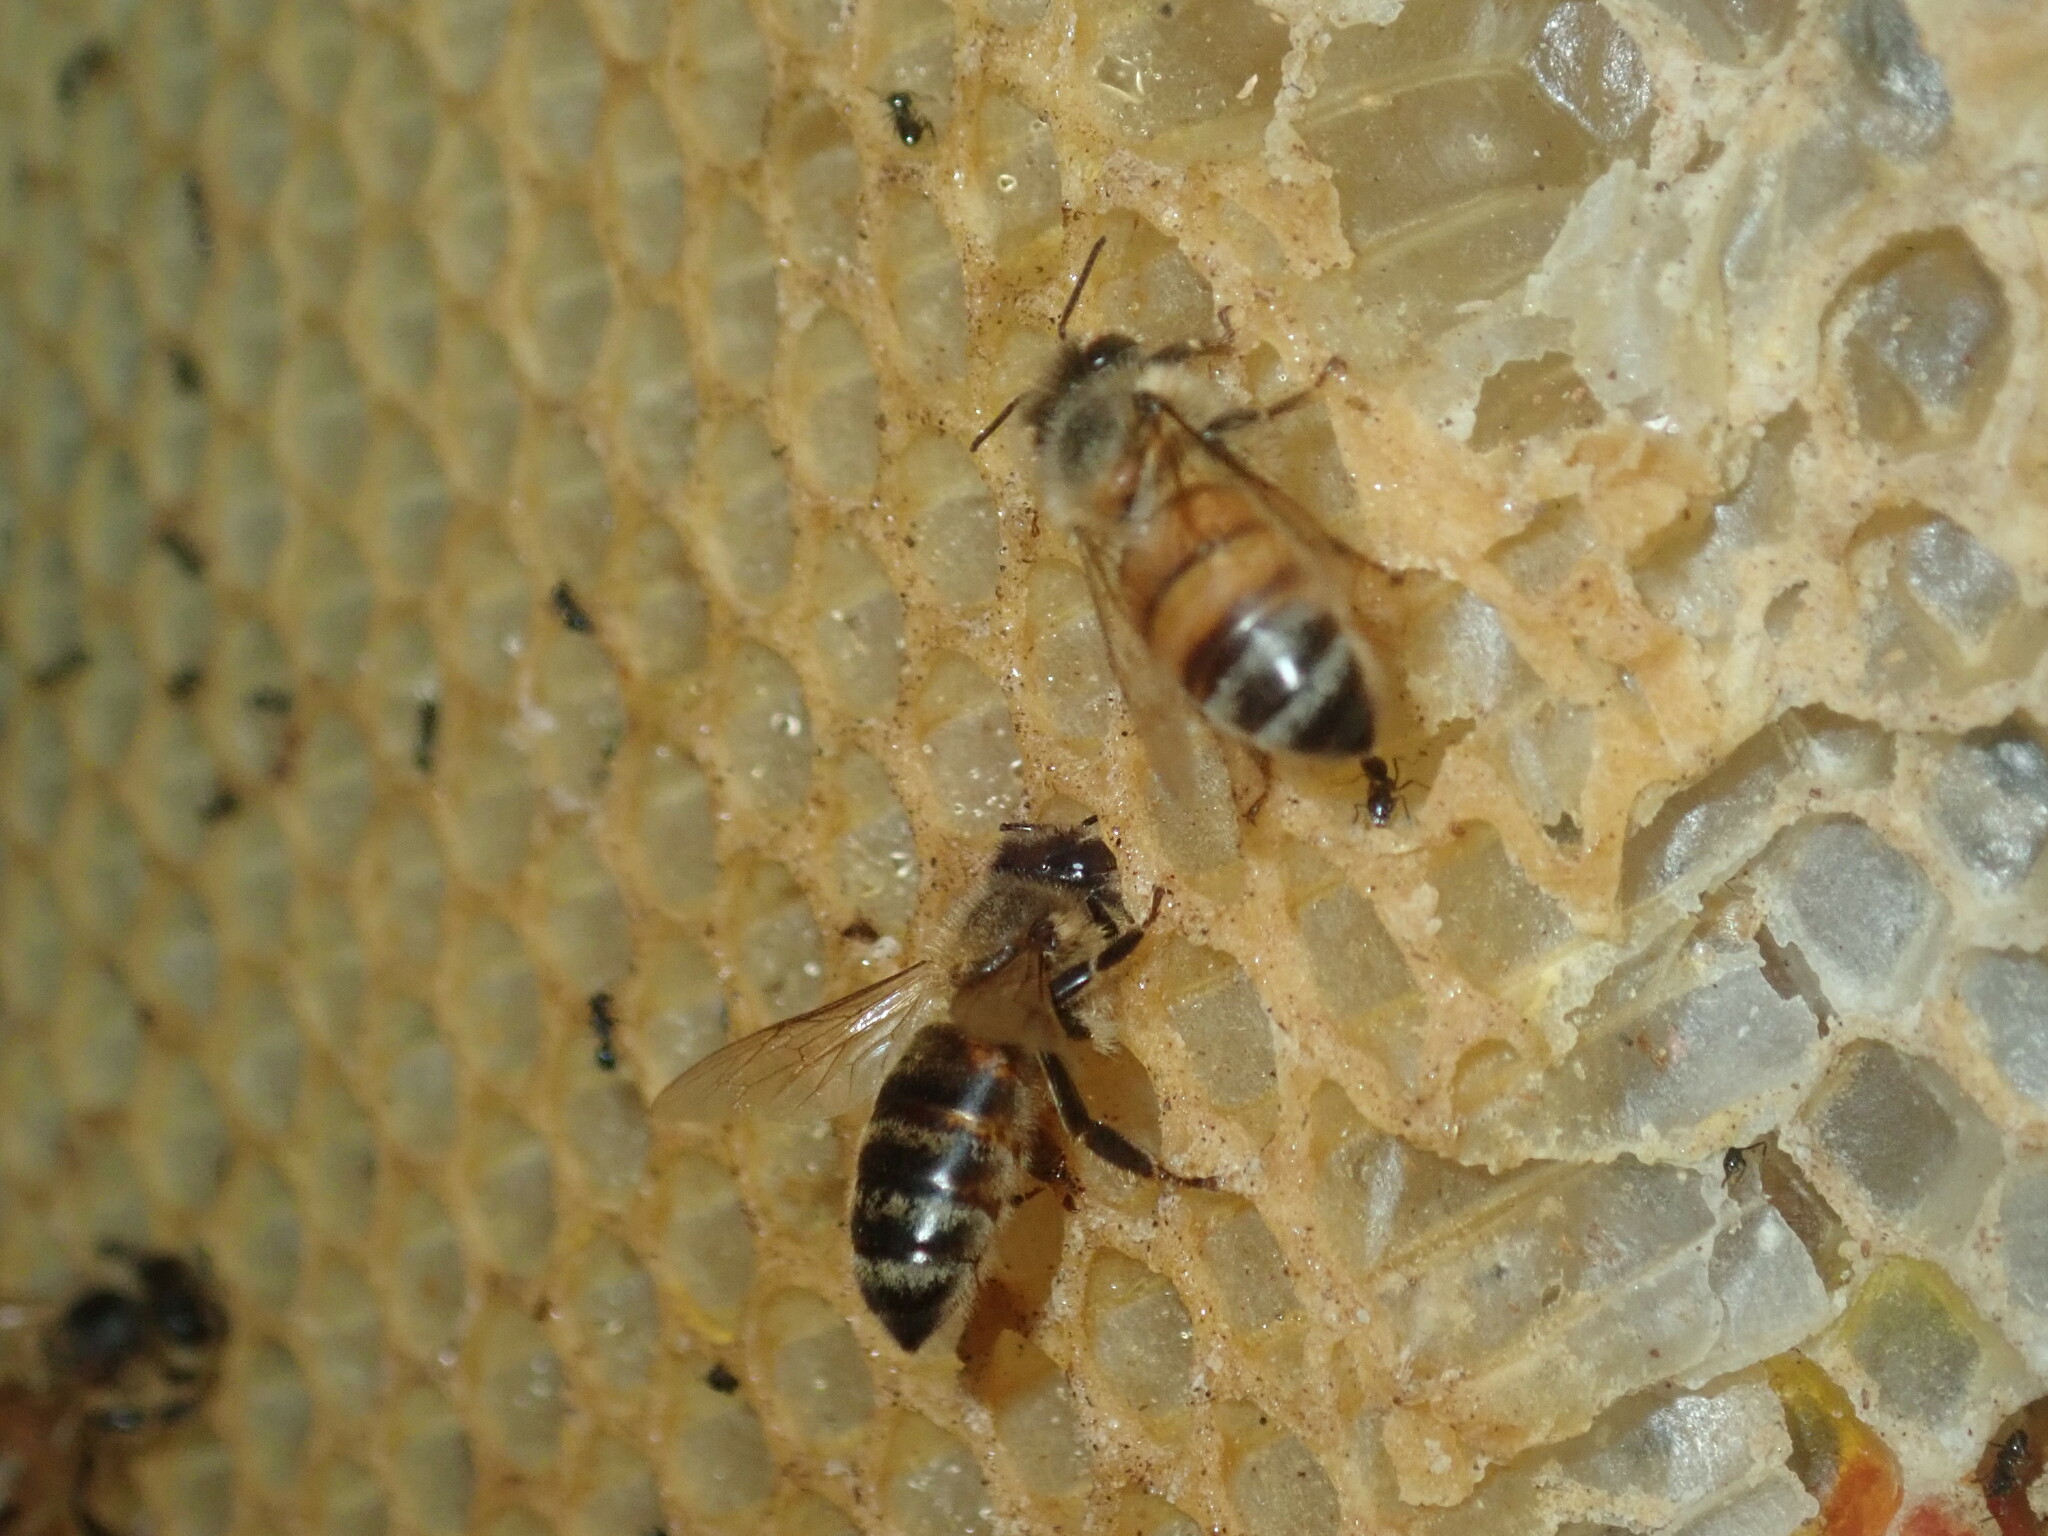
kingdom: Animalia
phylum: Arthropoda
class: Insecta
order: Hymenoptera
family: Apidae
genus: Apis
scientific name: Apis mellifera
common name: Honey bee
